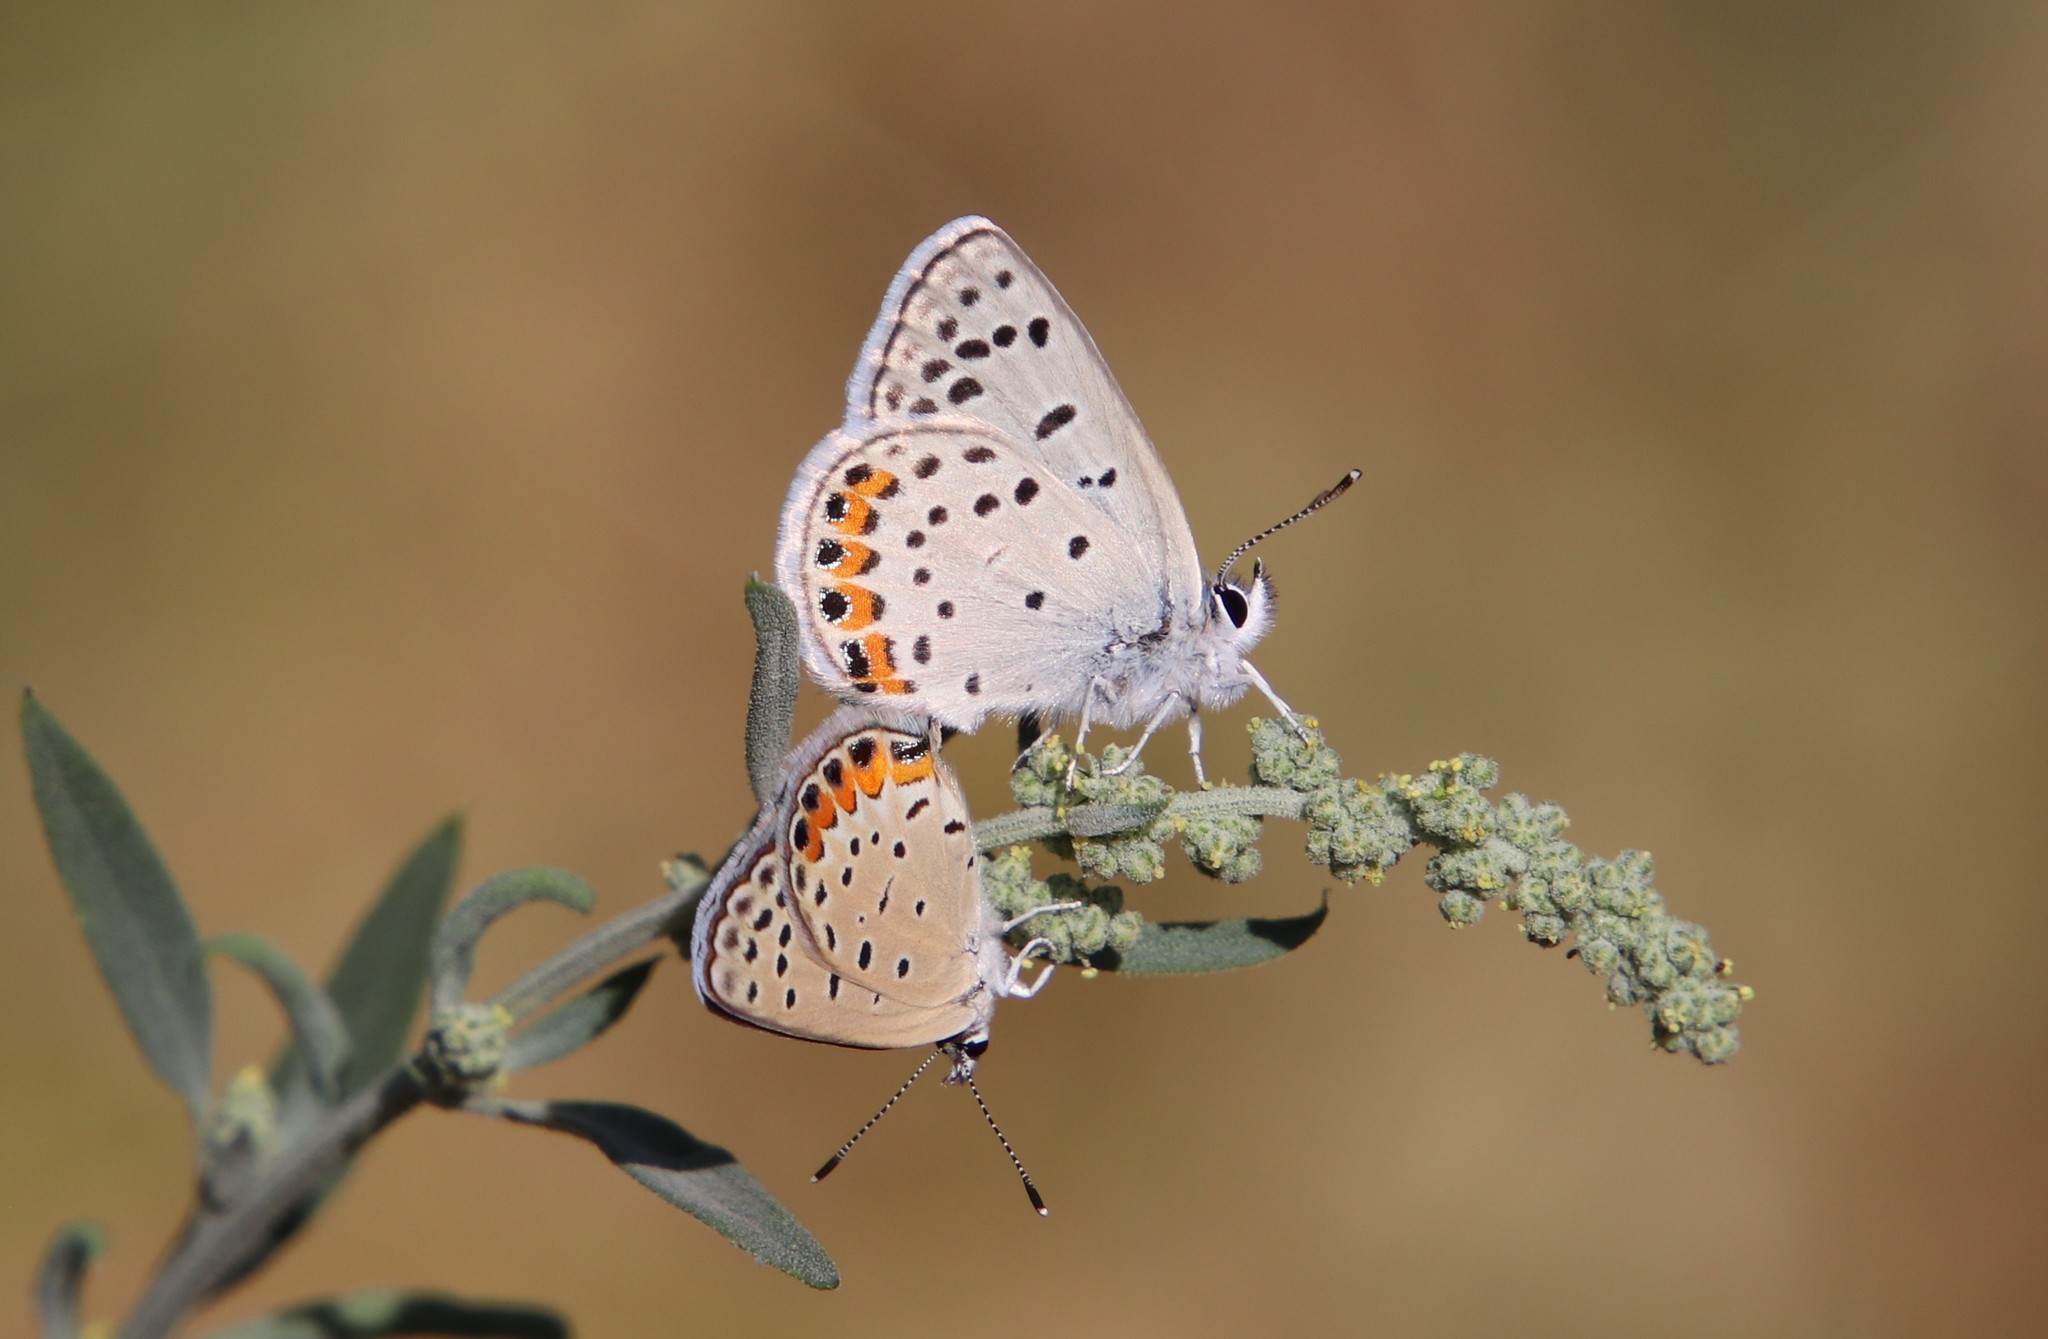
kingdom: Animalia
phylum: Arthropoda
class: Insecta
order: Lepidoptera
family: Lycaenidae
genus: Icaricia
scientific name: Icaricia acmon
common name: Acmon blue
